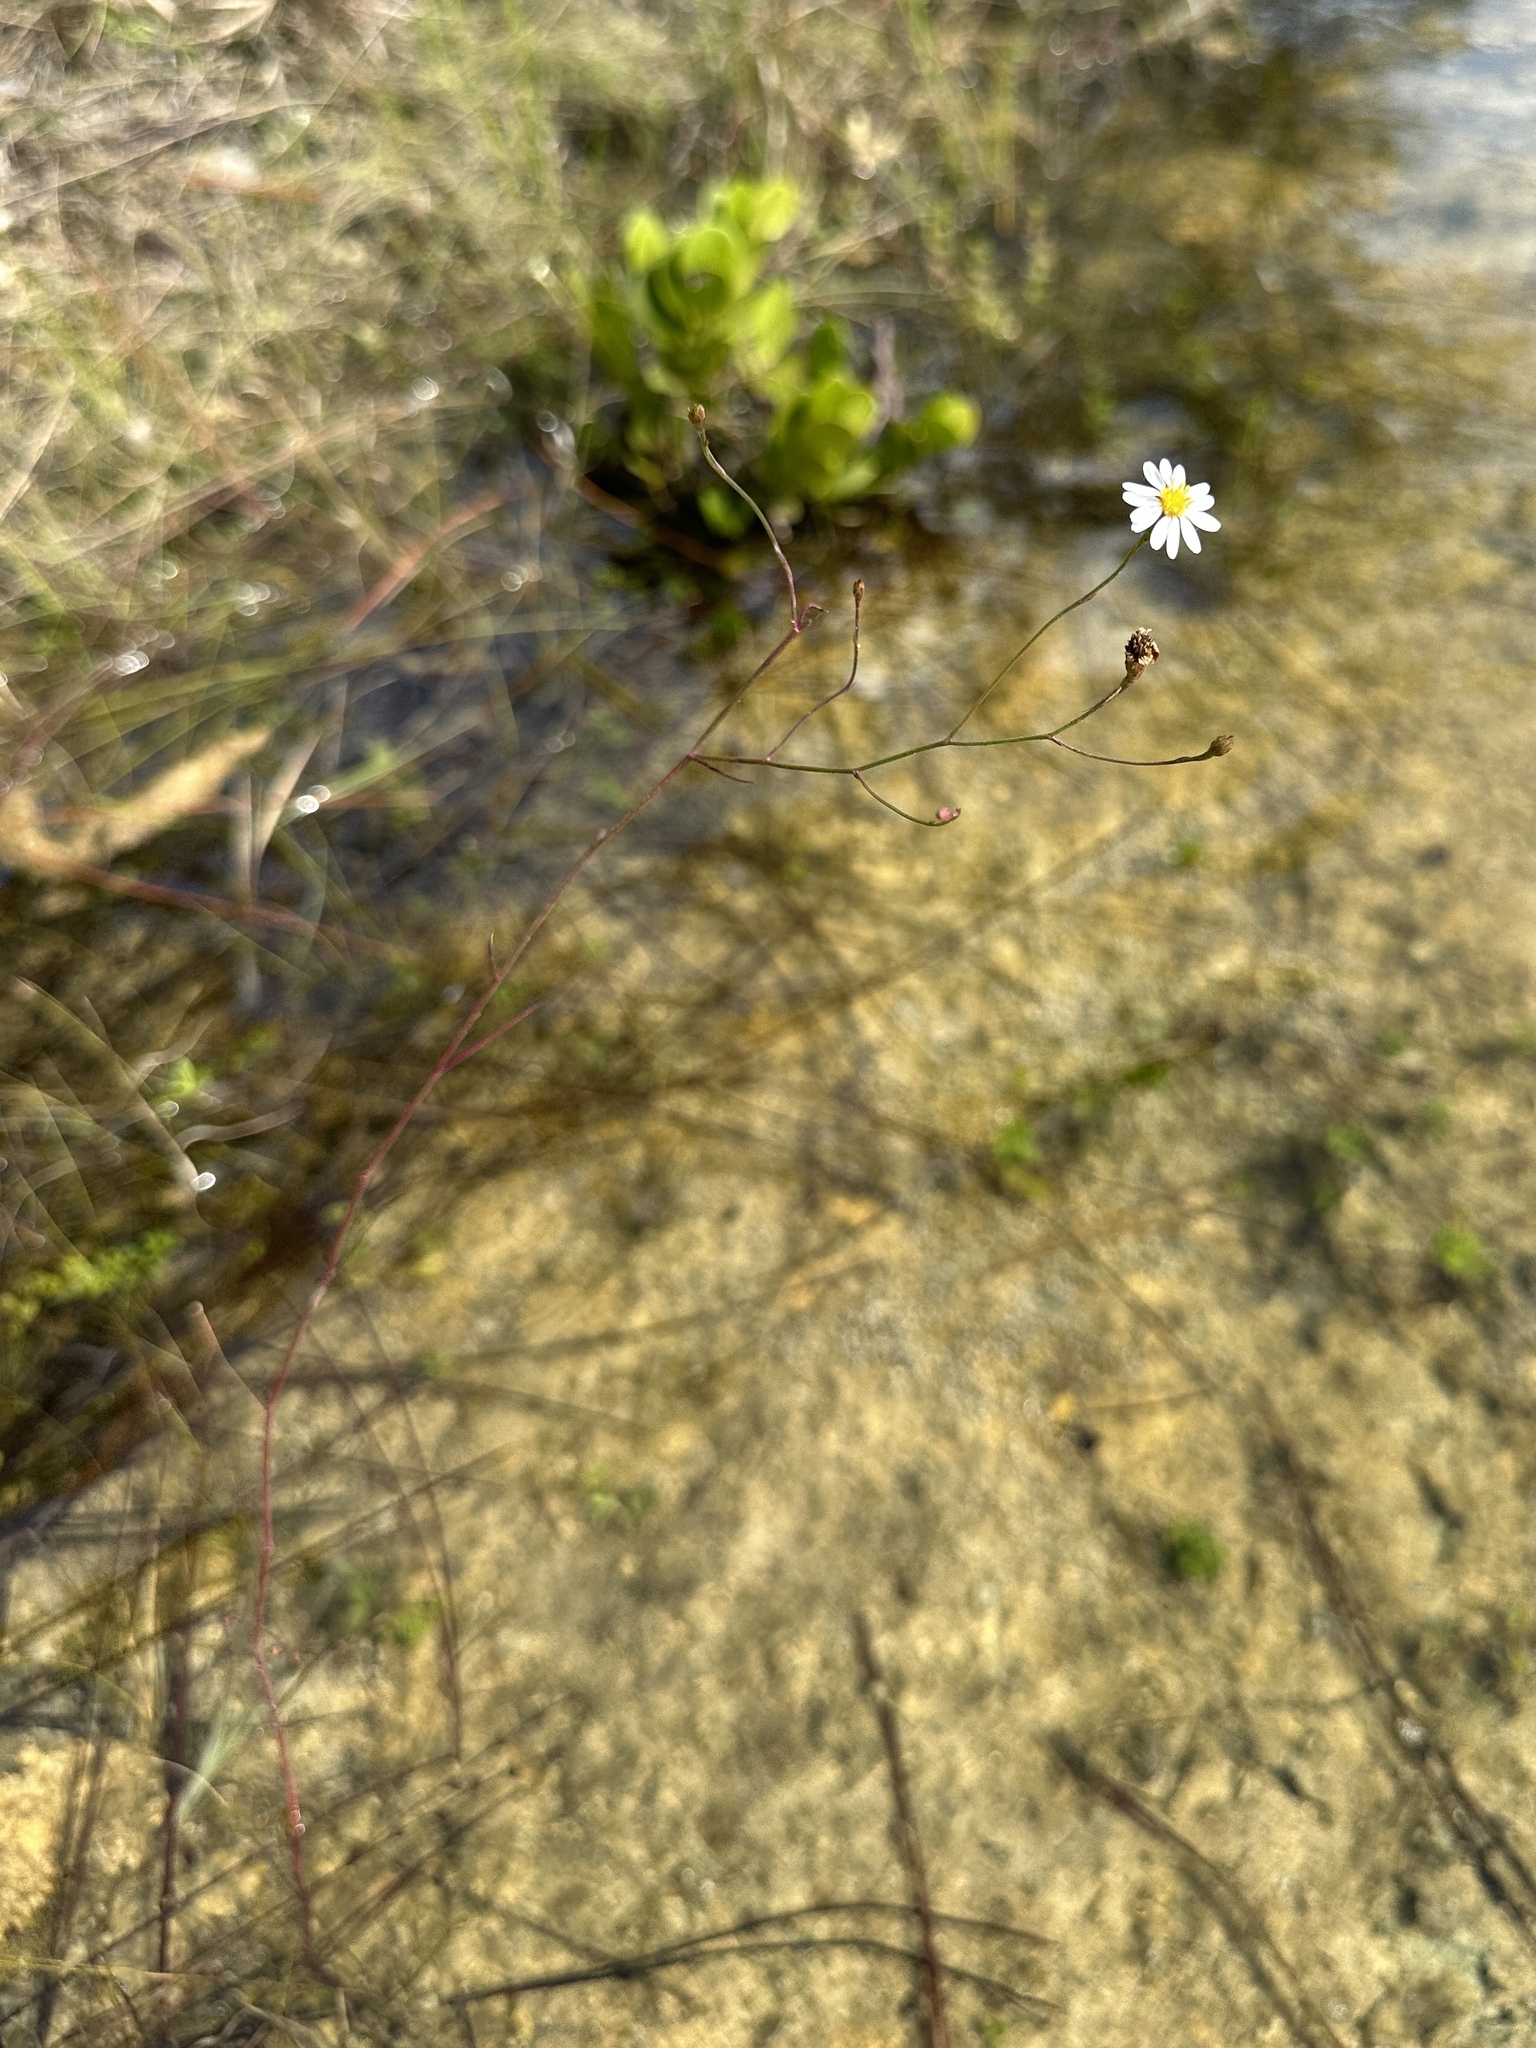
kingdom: Plantae
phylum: Tracheophyta
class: Magnoliopsida
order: Asterales
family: Asteraceae
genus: Symphyotrichum
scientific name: Symphyotrichum tenuifolium
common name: Perennial salt-marsh aster
